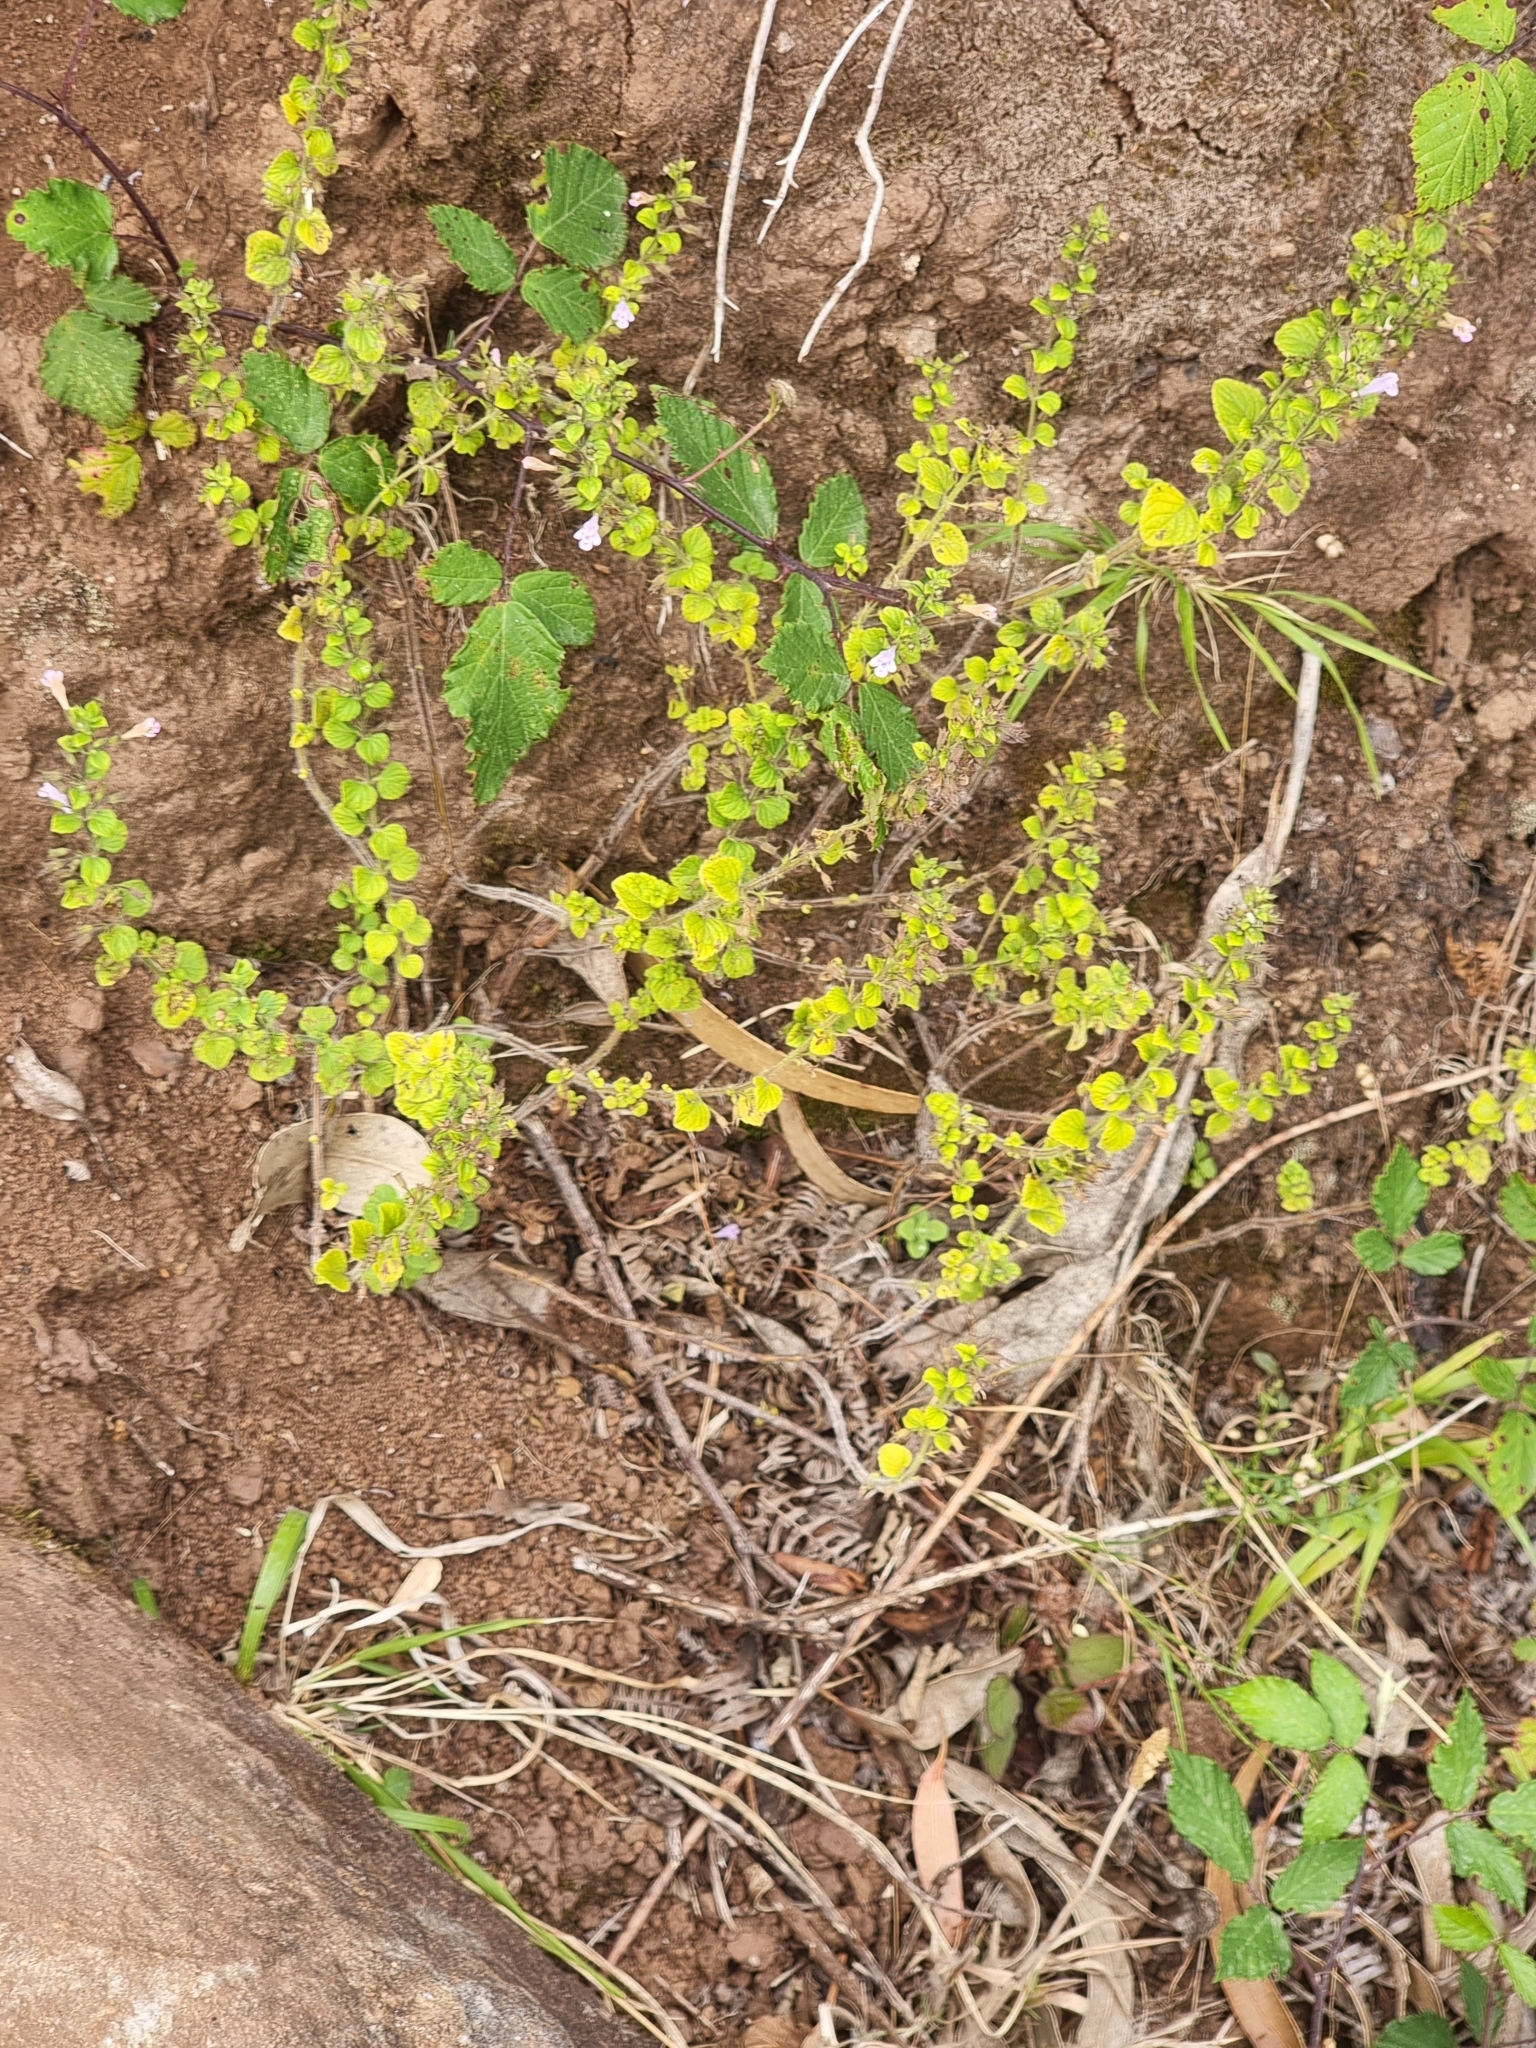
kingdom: Plantae
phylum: Tracheophyta
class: Magnoliopsida
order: Lamiales
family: Lamiaceae
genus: Clinopodium
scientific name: Clinopodium menthifolium
